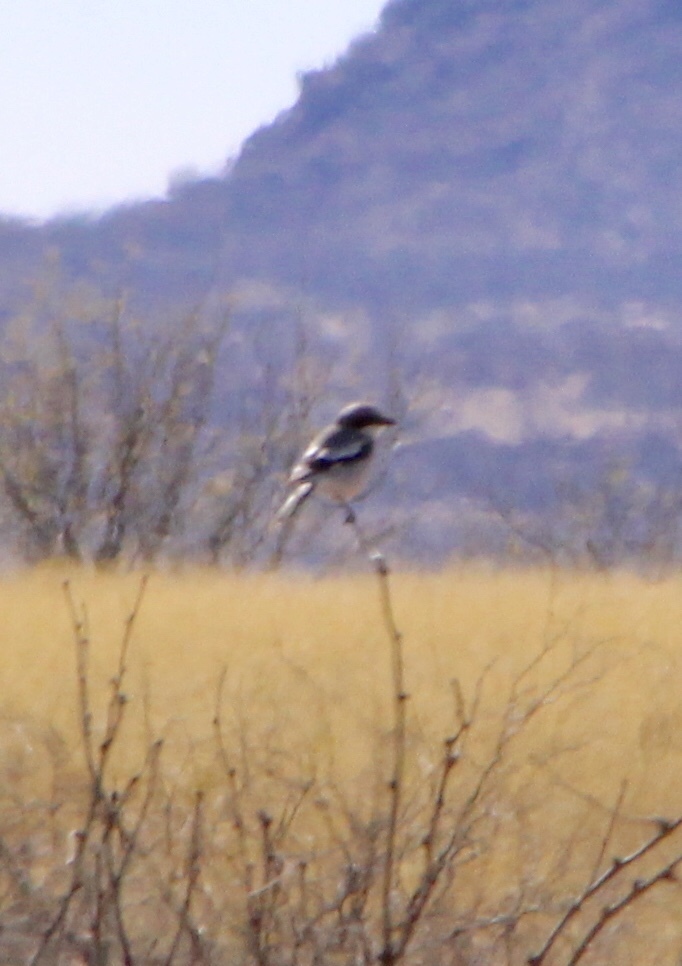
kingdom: Animalia
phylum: Chordata
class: Aves
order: Passeriformes
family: Laniidae
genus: Lanius
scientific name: Lanius ludovicianus
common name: Loggerhead shrike
